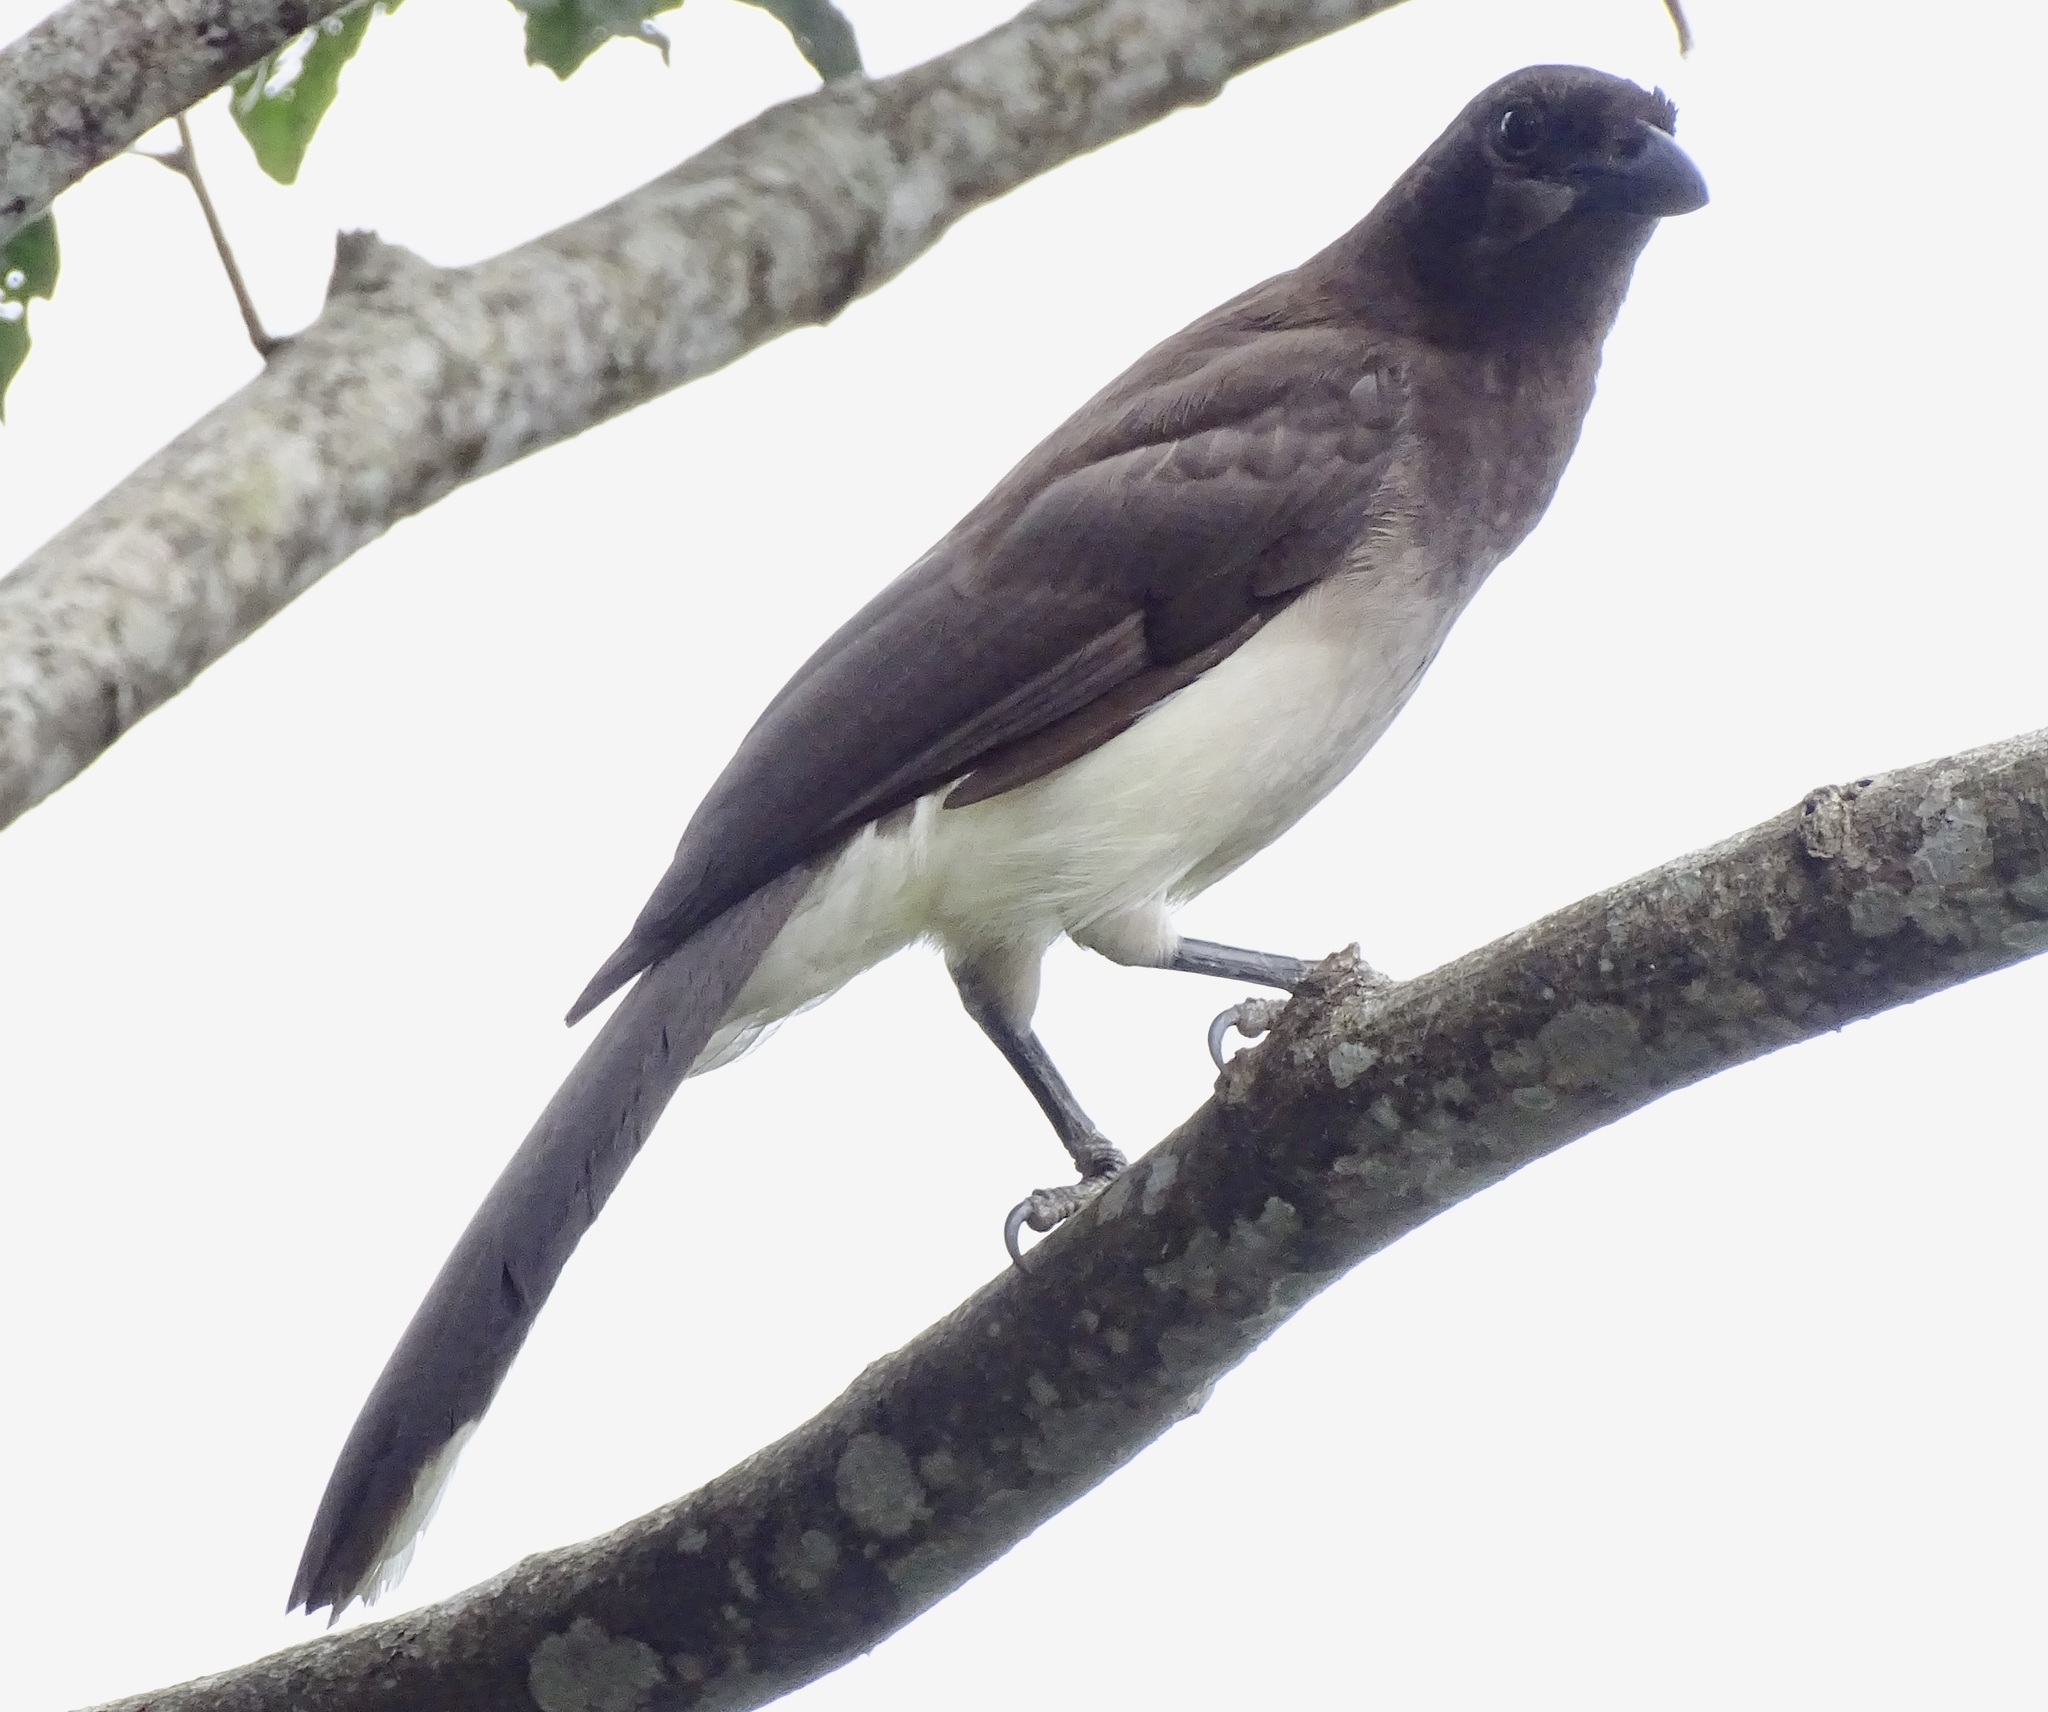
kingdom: Animalia
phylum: Chordata
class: Aves
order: Passeriformes
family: Corvidae
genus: Psilorhinus
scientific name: Psilorhinus morio
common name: Brown jay
